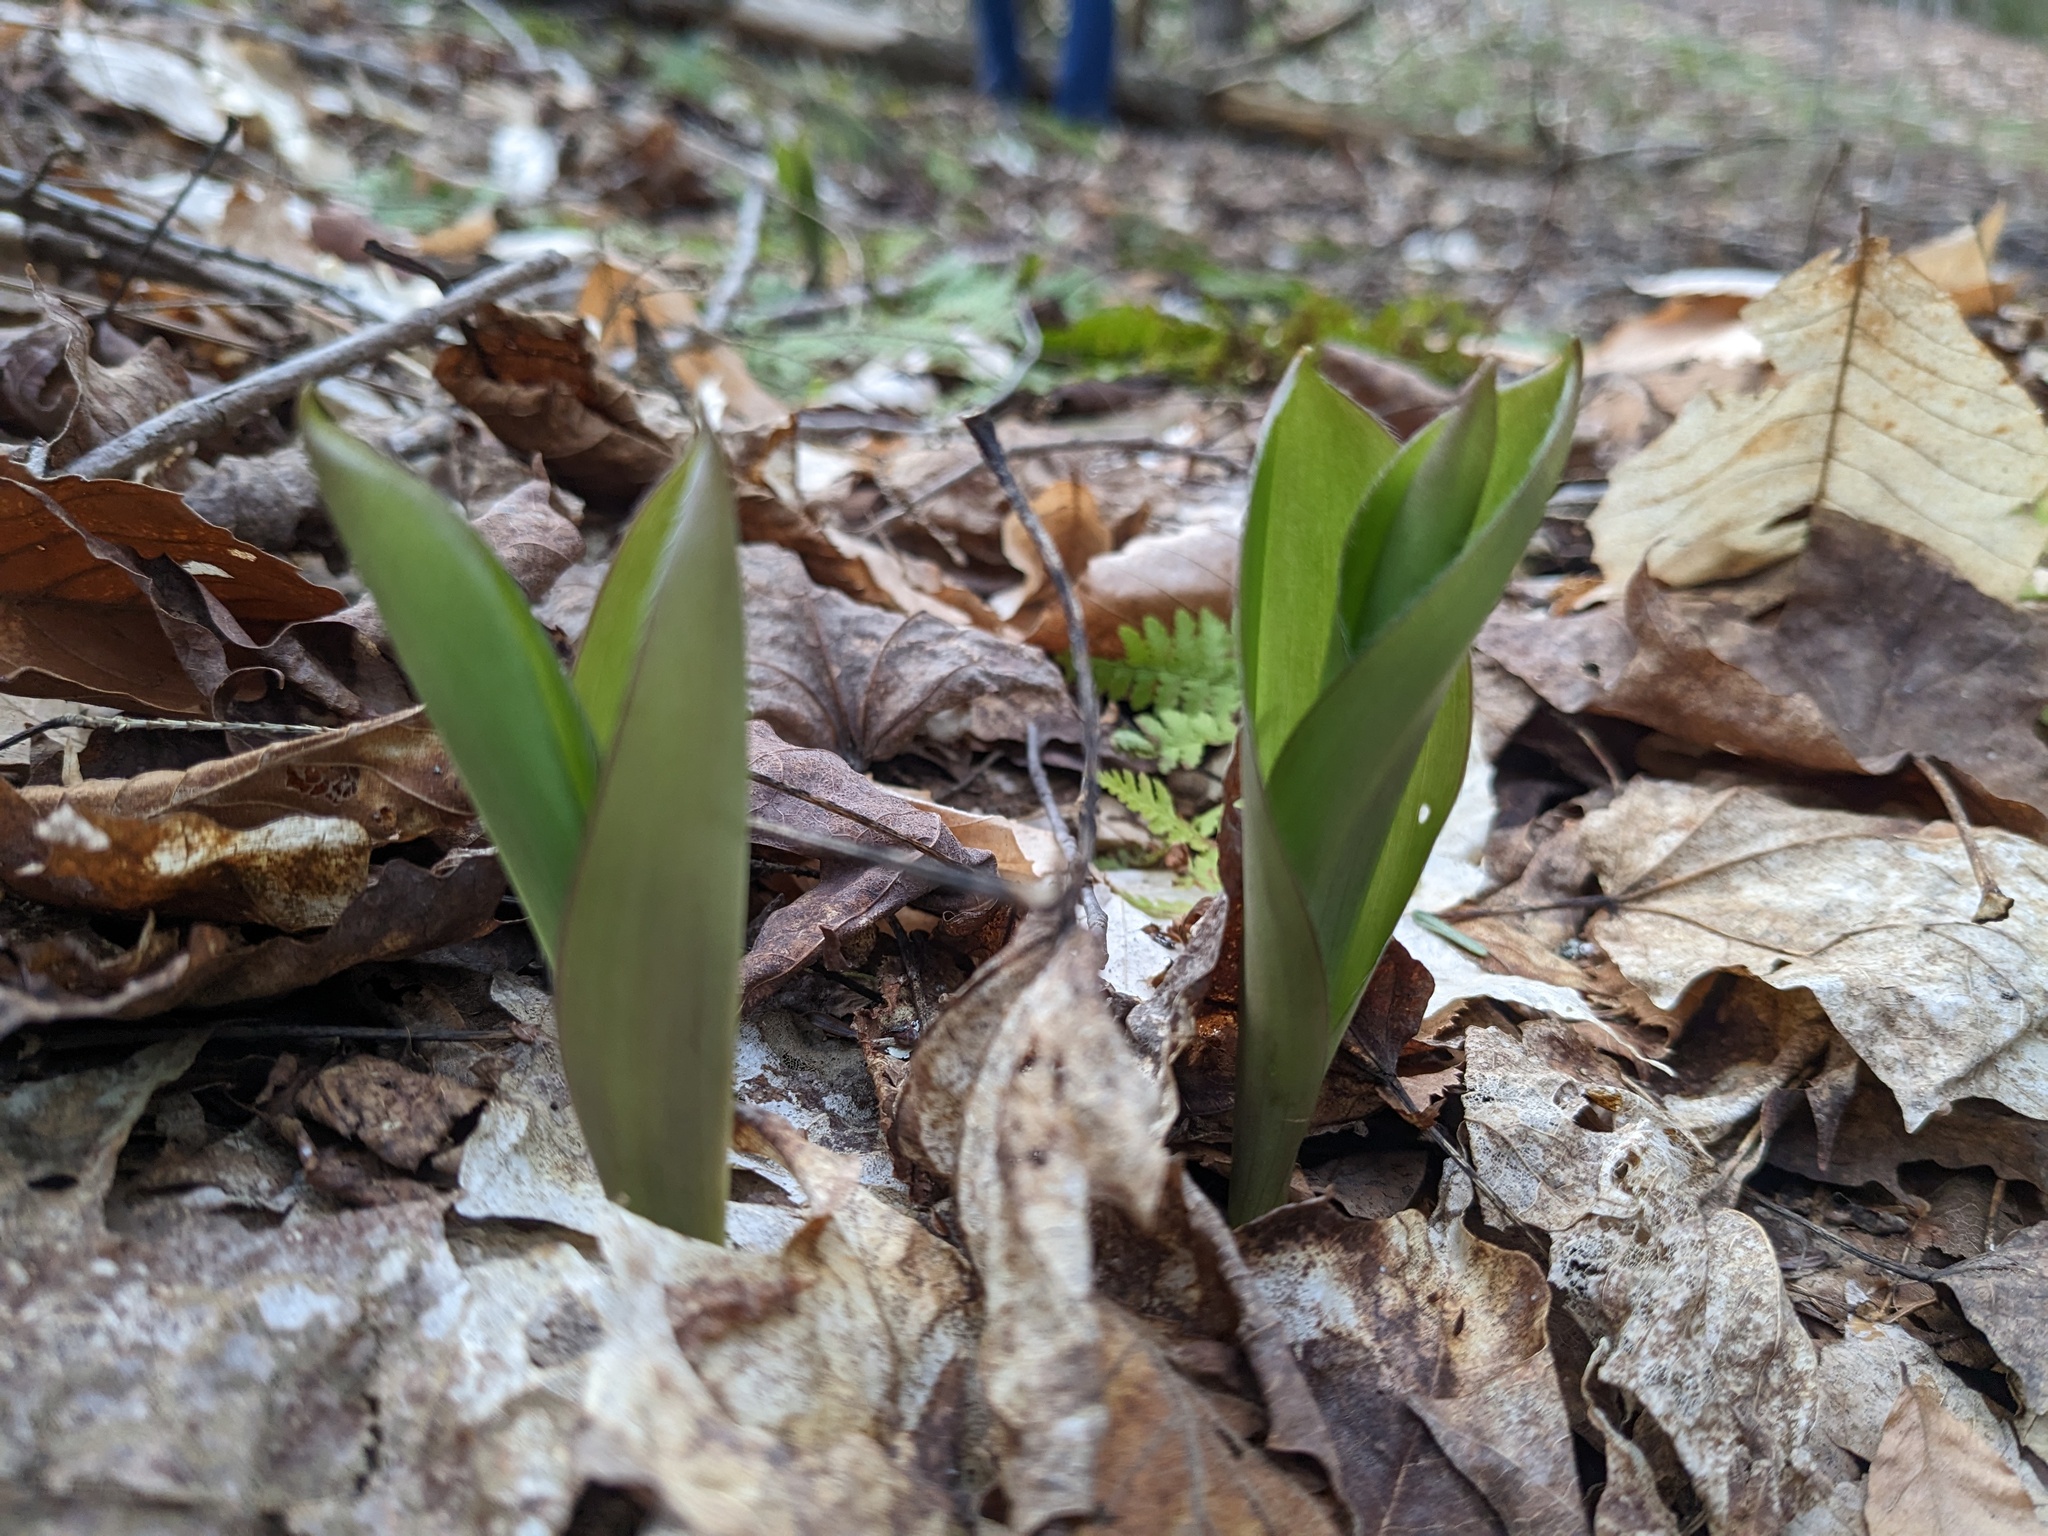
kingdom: Plantae
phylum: Tracheophyta
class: Liliopsida
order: Liliales
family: Liliaceae
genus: Clintonia
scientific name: Clintonia borealis
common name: Yellow clintonia
